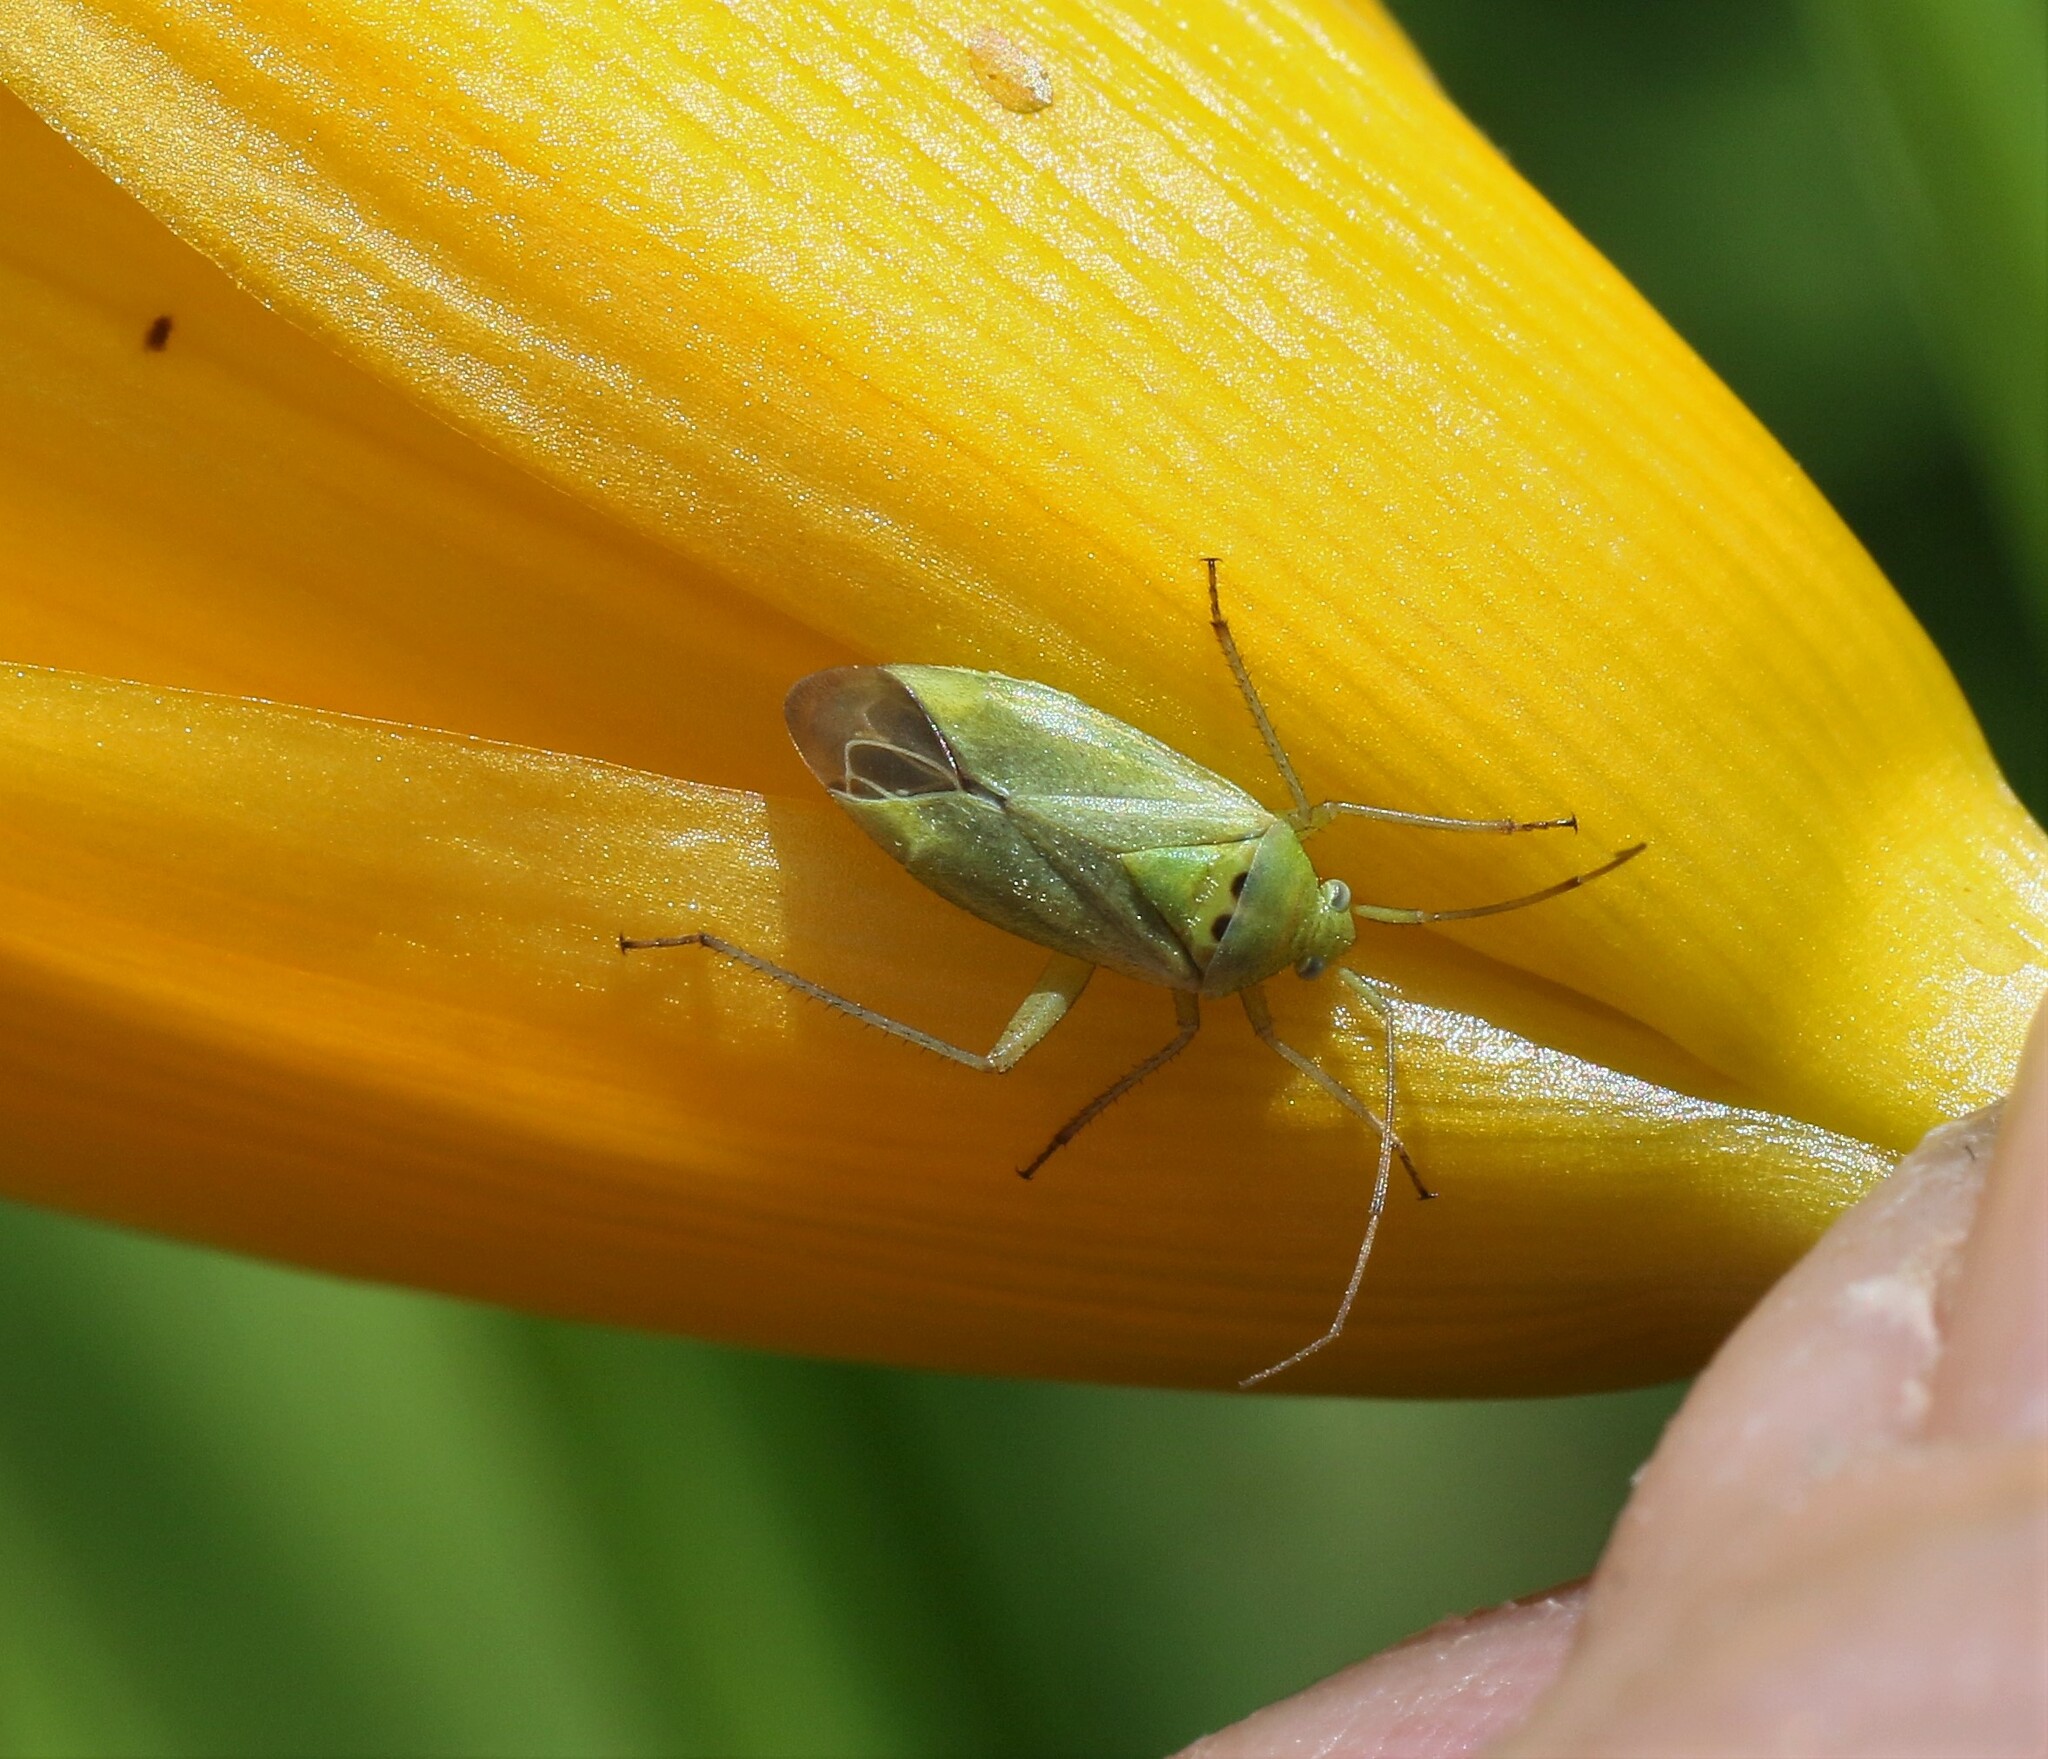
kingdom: Animalia
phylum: Arthropoda
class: Insecta
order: Hemiptera
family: Miridae
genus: Closterotomus
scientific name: Closterotomus norvegicus
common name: Plant bug
